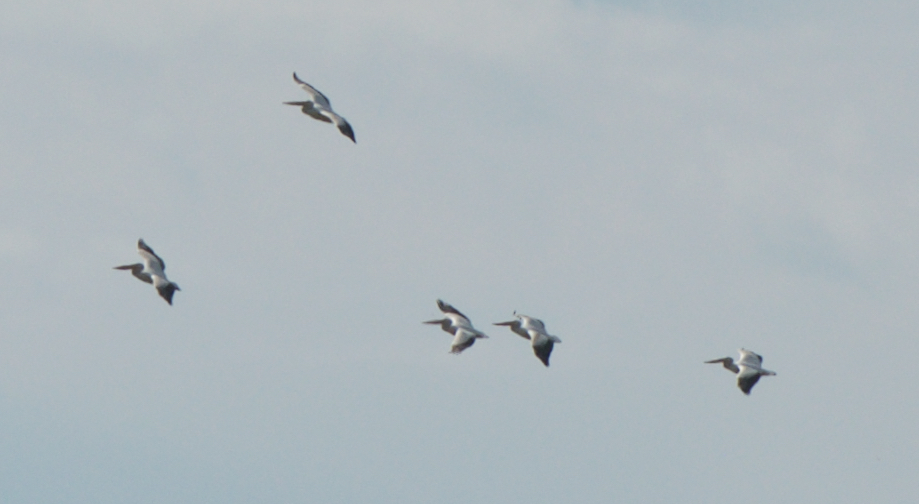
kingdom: Animalia
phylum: Chordata
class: Aves
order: Pelecaniformes
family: Pelecanidae
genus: Pelecanus
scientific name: Pelecanus erythrorhynchos
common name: American white pelican
